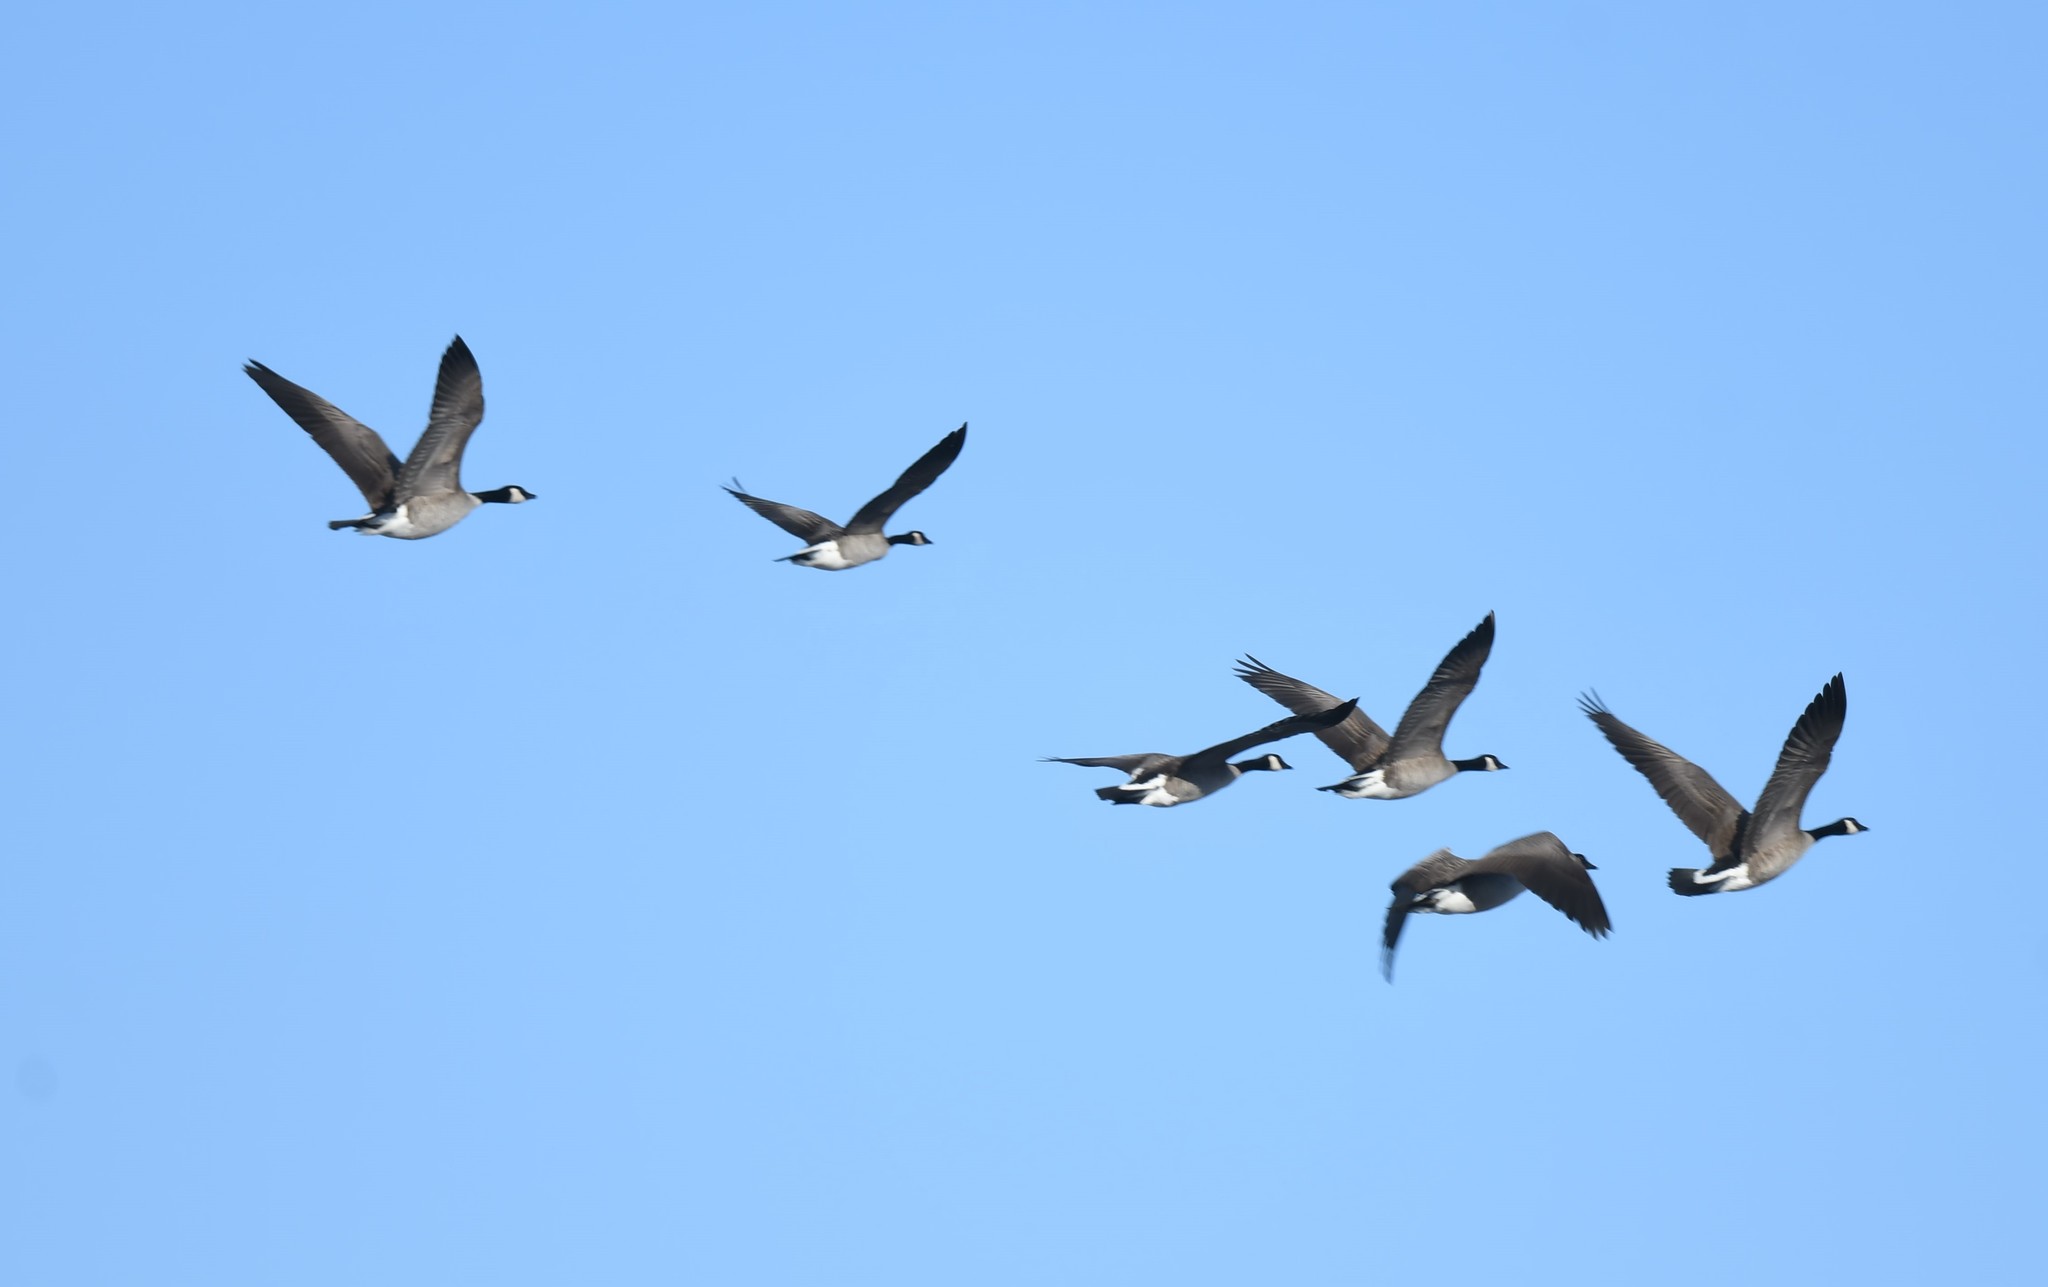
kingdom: Animalia
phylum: Chordata
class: Aves
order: Anseriformes
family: Anatidae
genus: Branta
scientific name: Branta canadensis
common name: Canada goose
